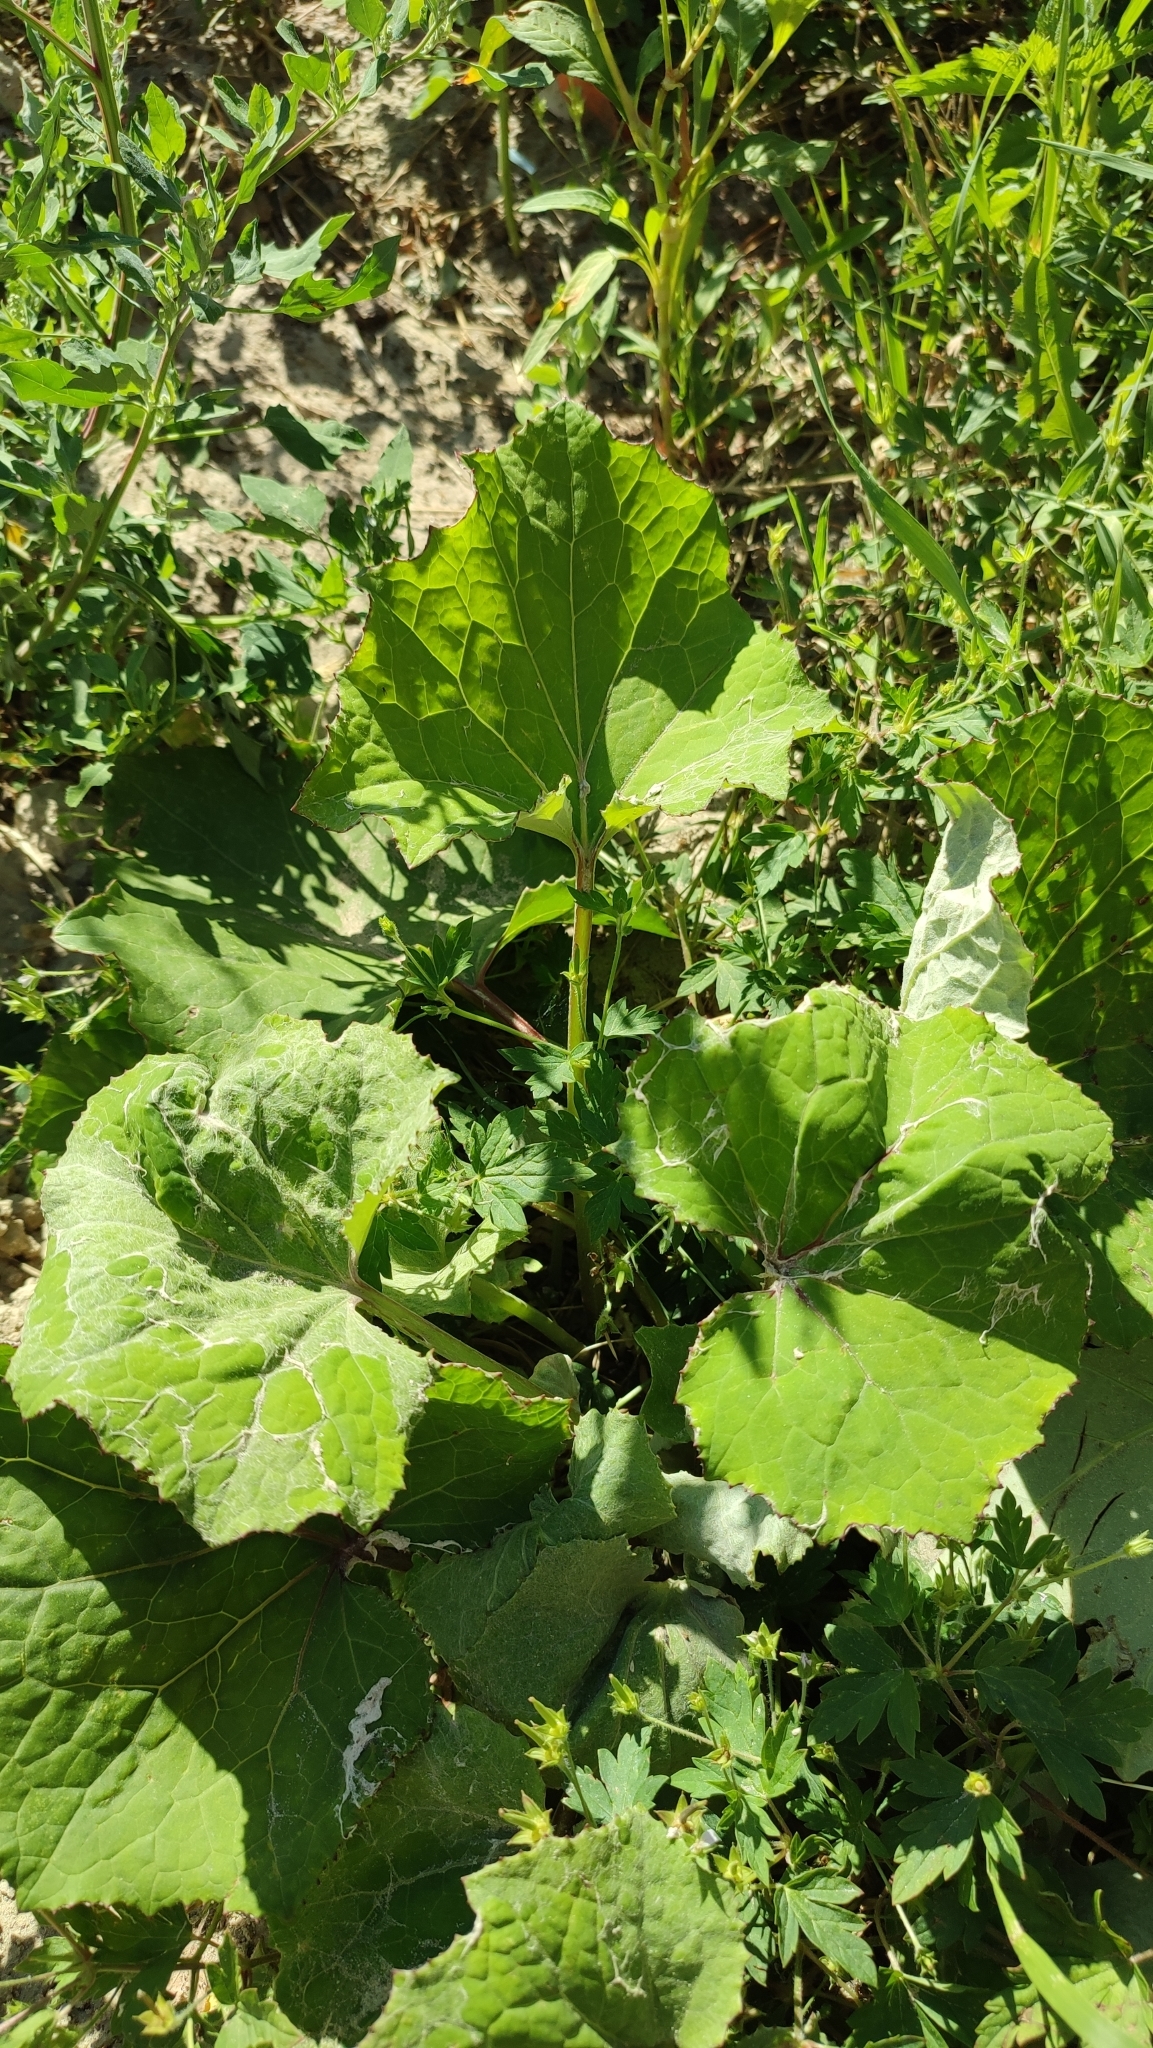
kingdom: Plantae
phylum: Tracheophyta
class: Magnoliopsida
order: Asterales
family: Asteraceae
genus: Tussilago
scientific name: Tussilago farfara
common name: Coltsfoot
